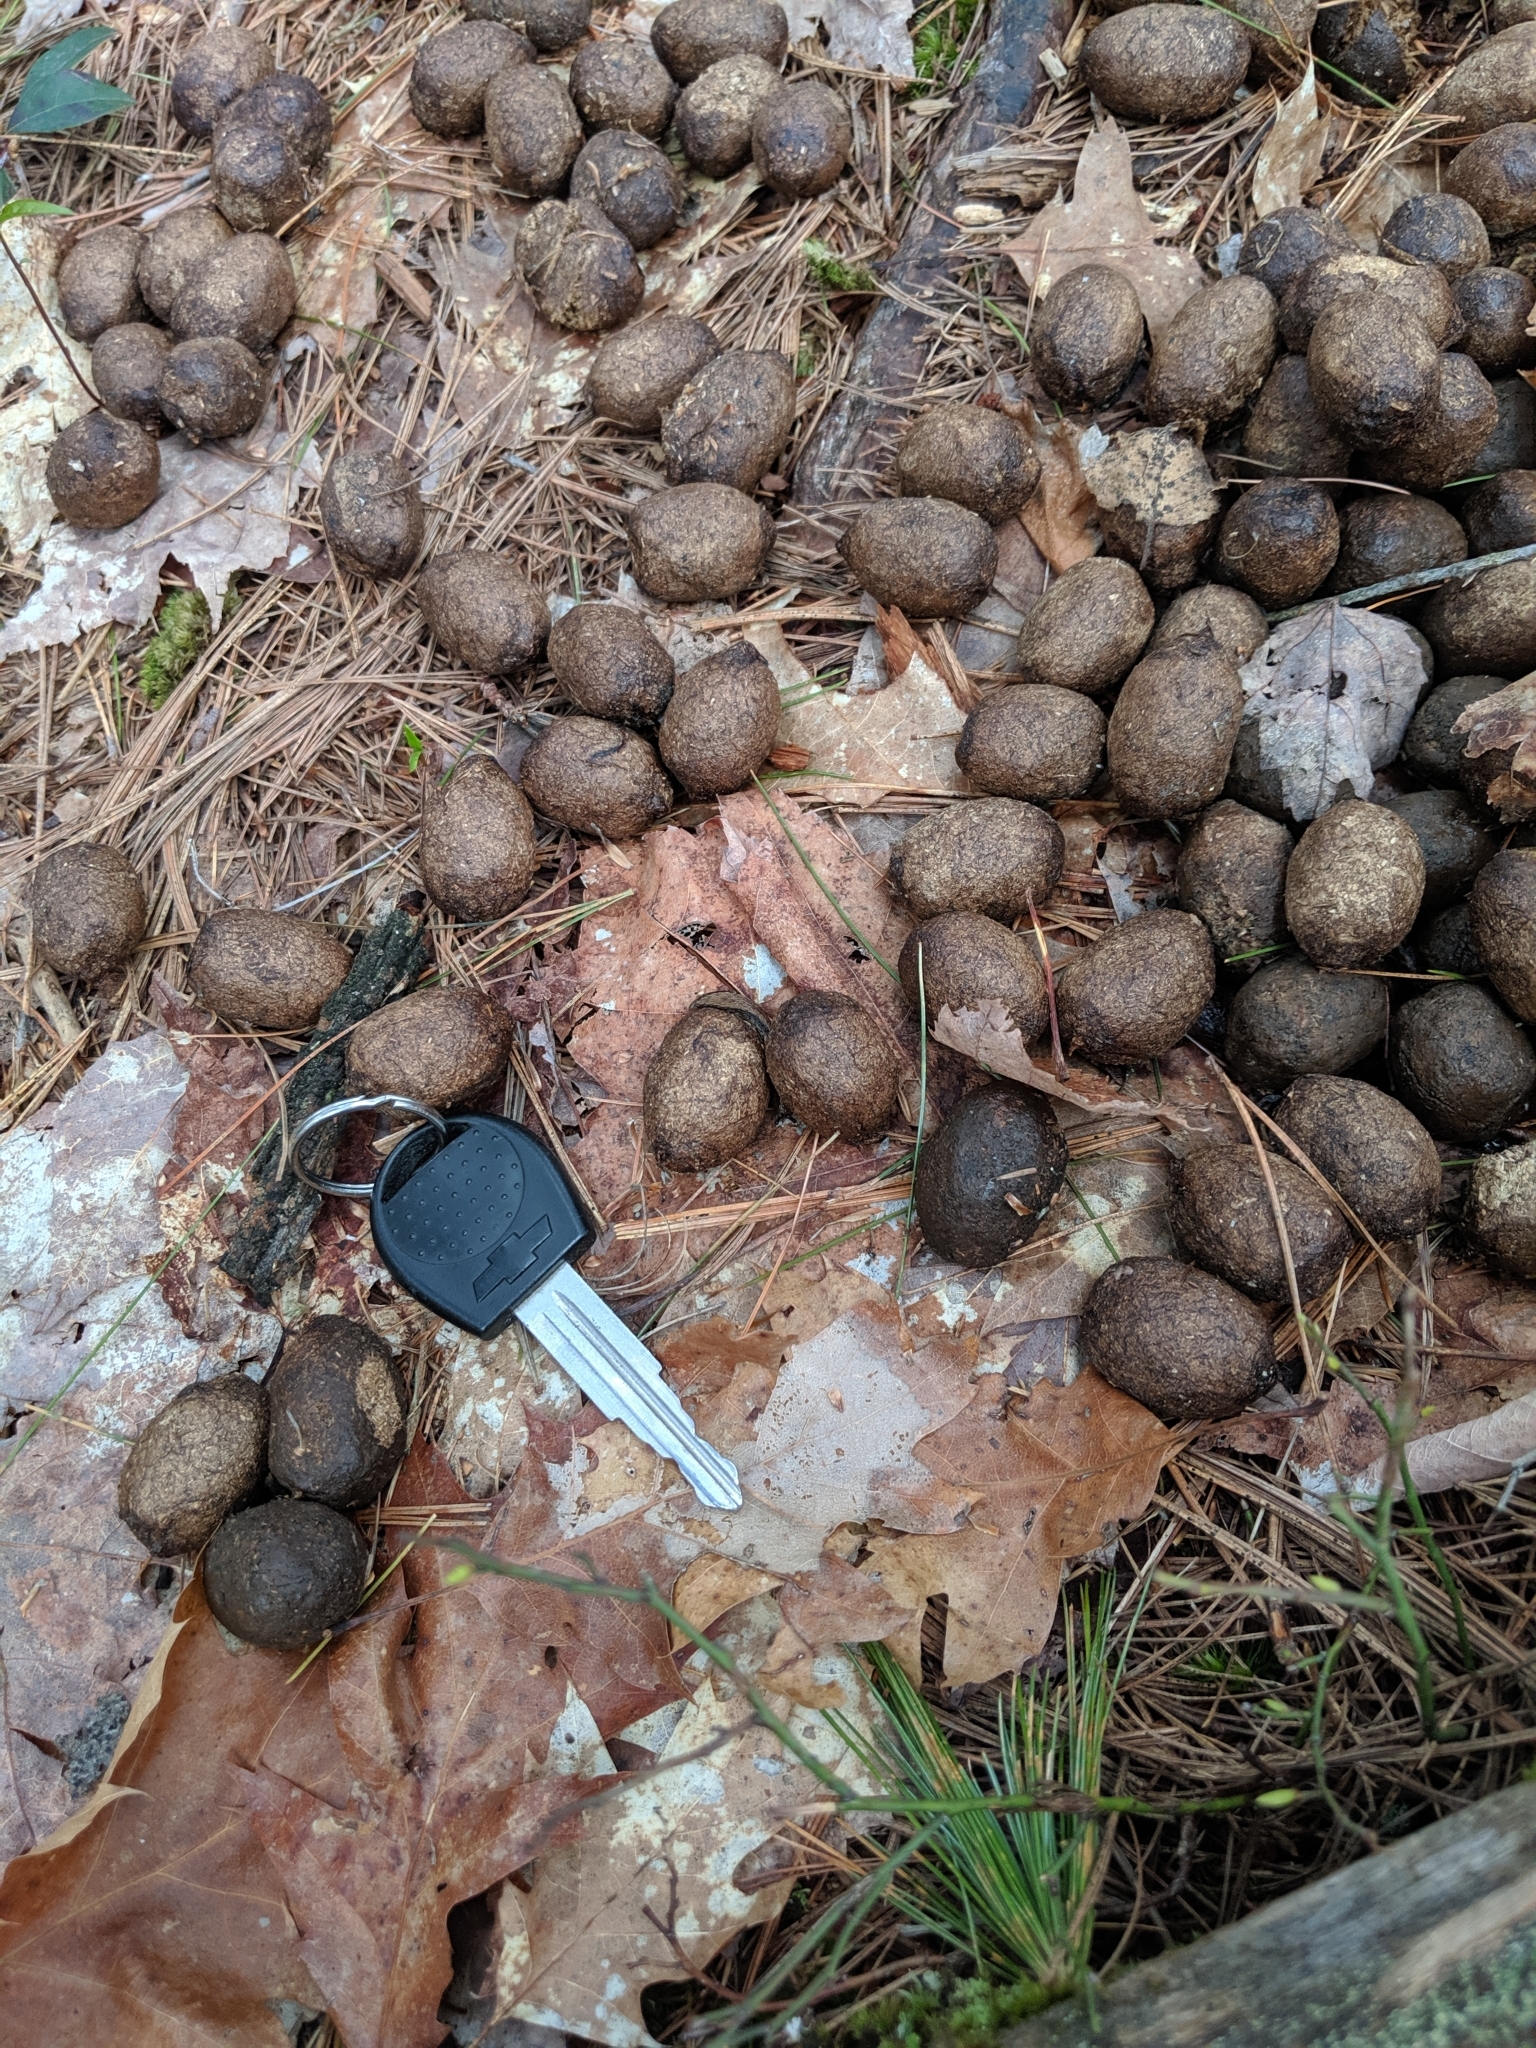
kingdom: Animalia
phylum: Chordata
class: Mammalia
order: Artiodactyla
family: Cervidae
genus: Alces
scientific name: Alces alces
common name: Moose
